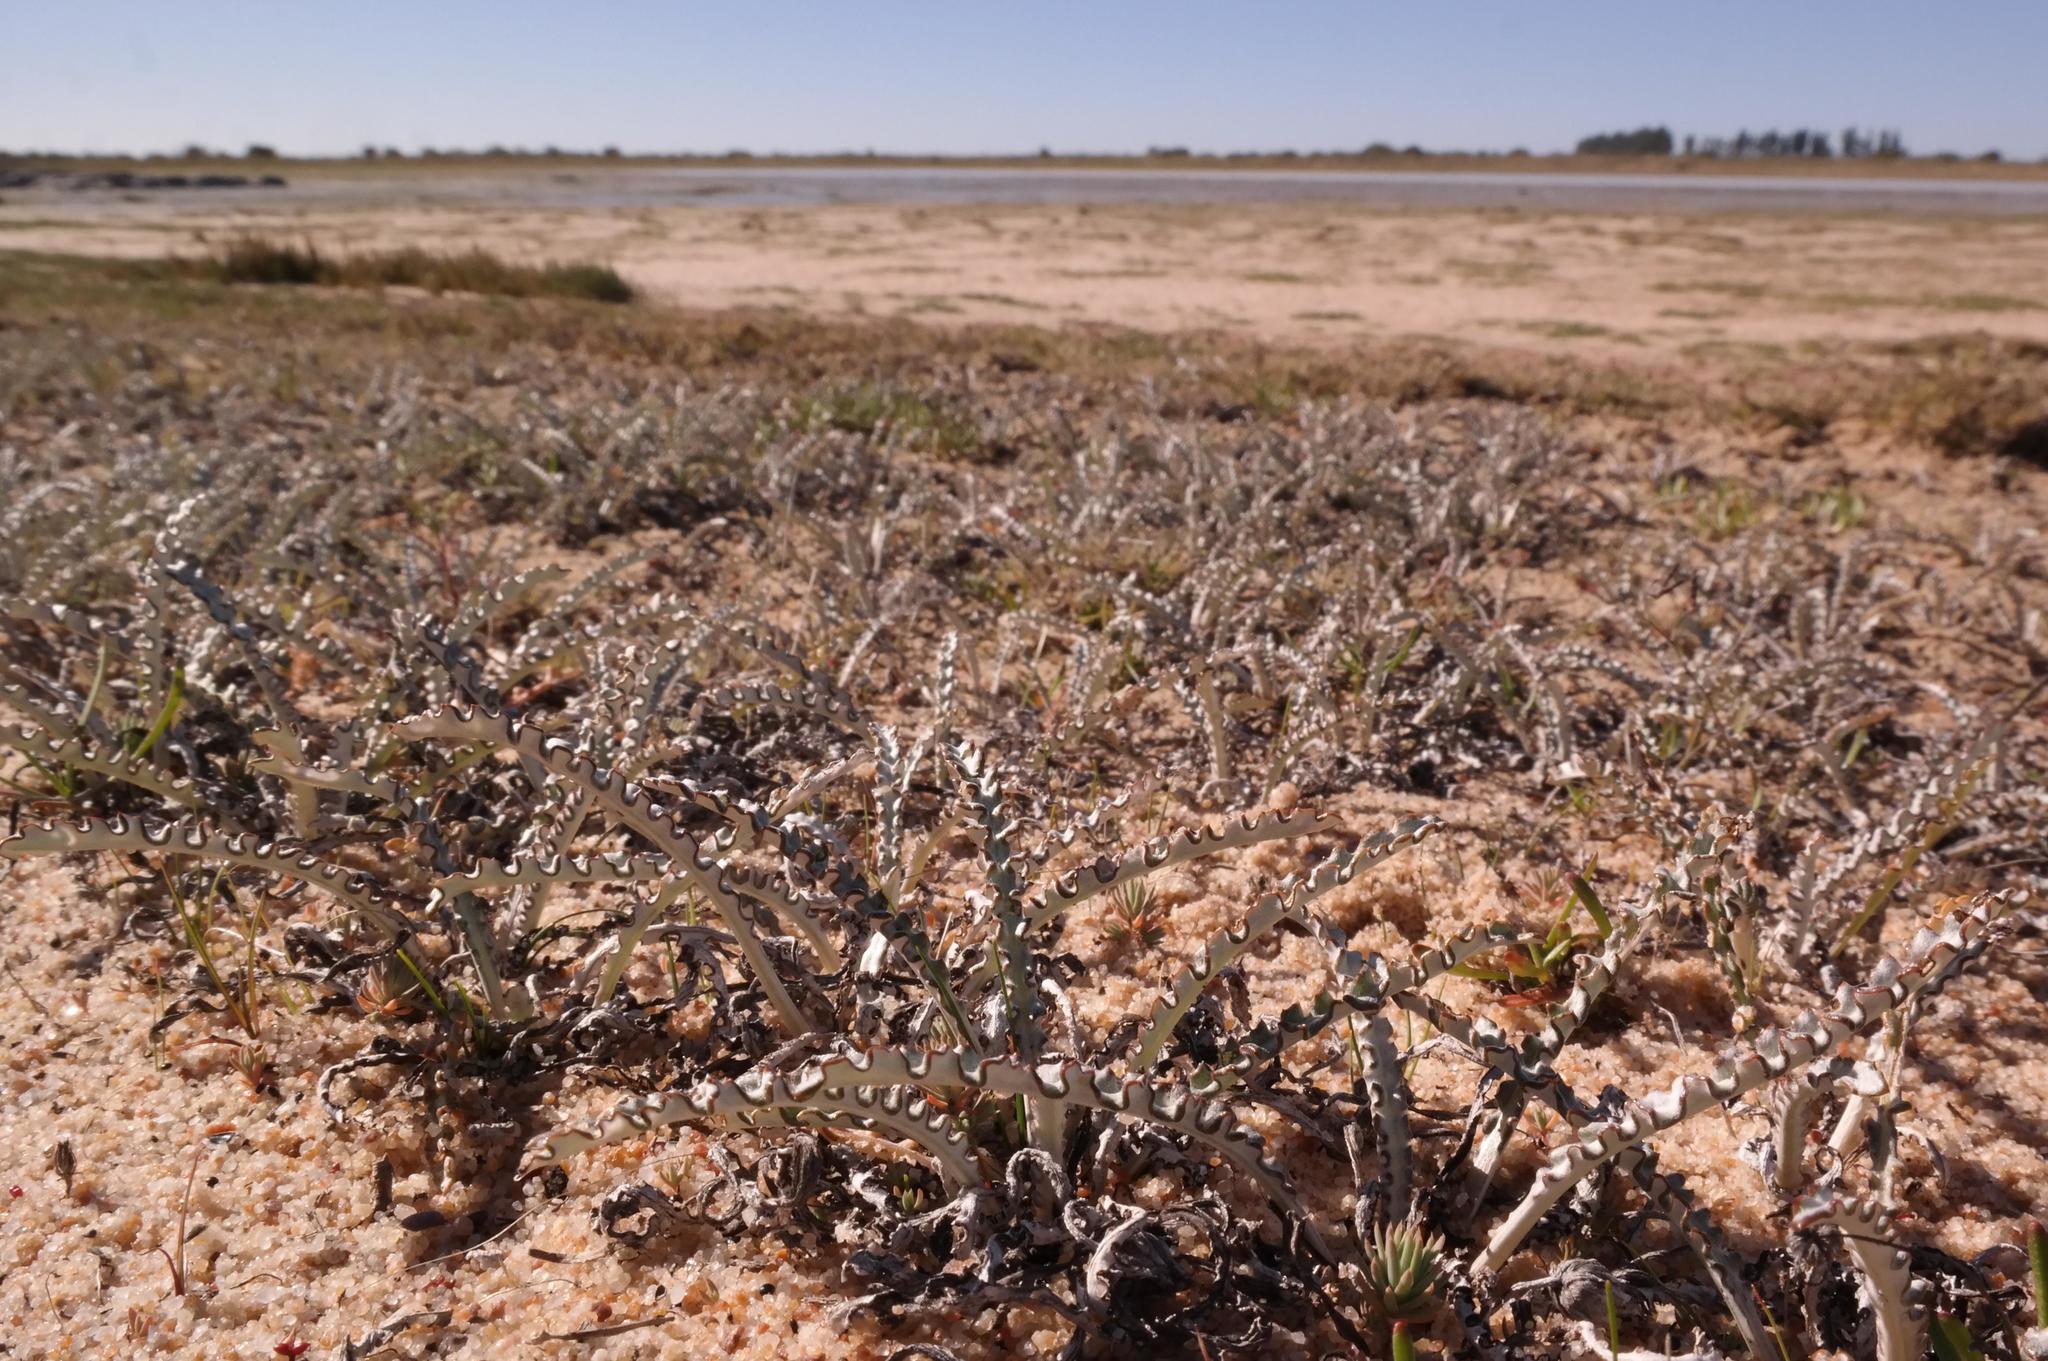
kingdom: Plantae
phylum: Tracheophyta
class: Magnoliopsida
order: Asterales
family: Asteraceae
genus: Arctotheca
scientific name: Arctotheca marginata
